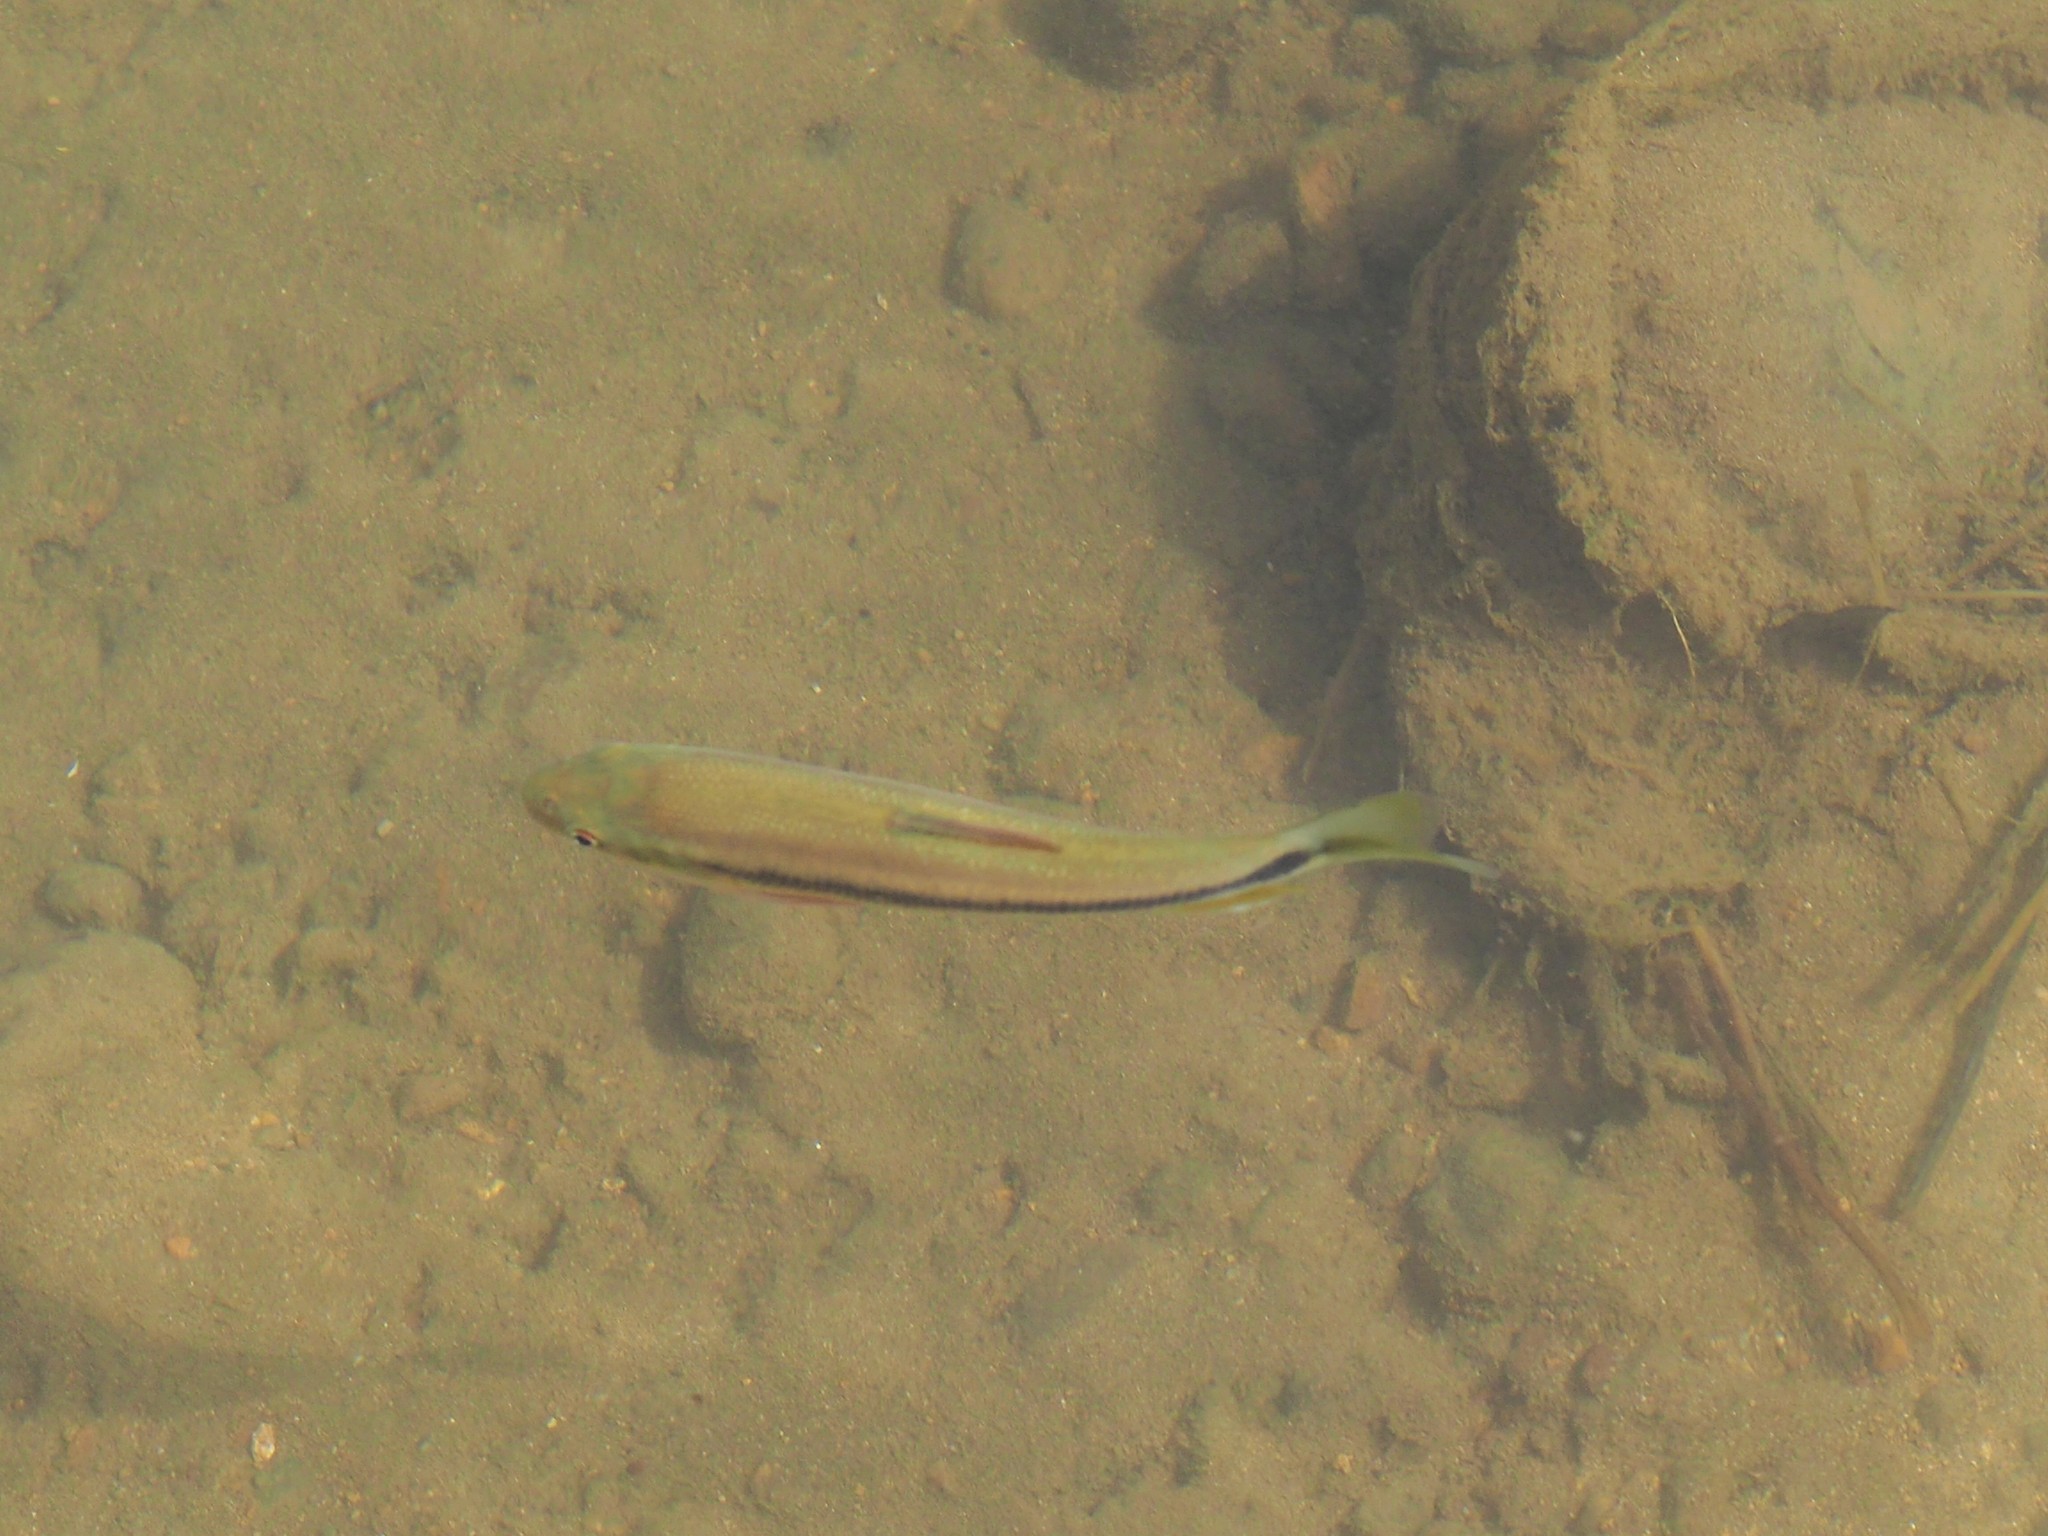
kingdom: Animalia
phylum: Chordata
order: Cypriniformes
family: Cyprinidae
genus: Candidia
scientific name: Candidia barbata
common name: Lake candidus dace
